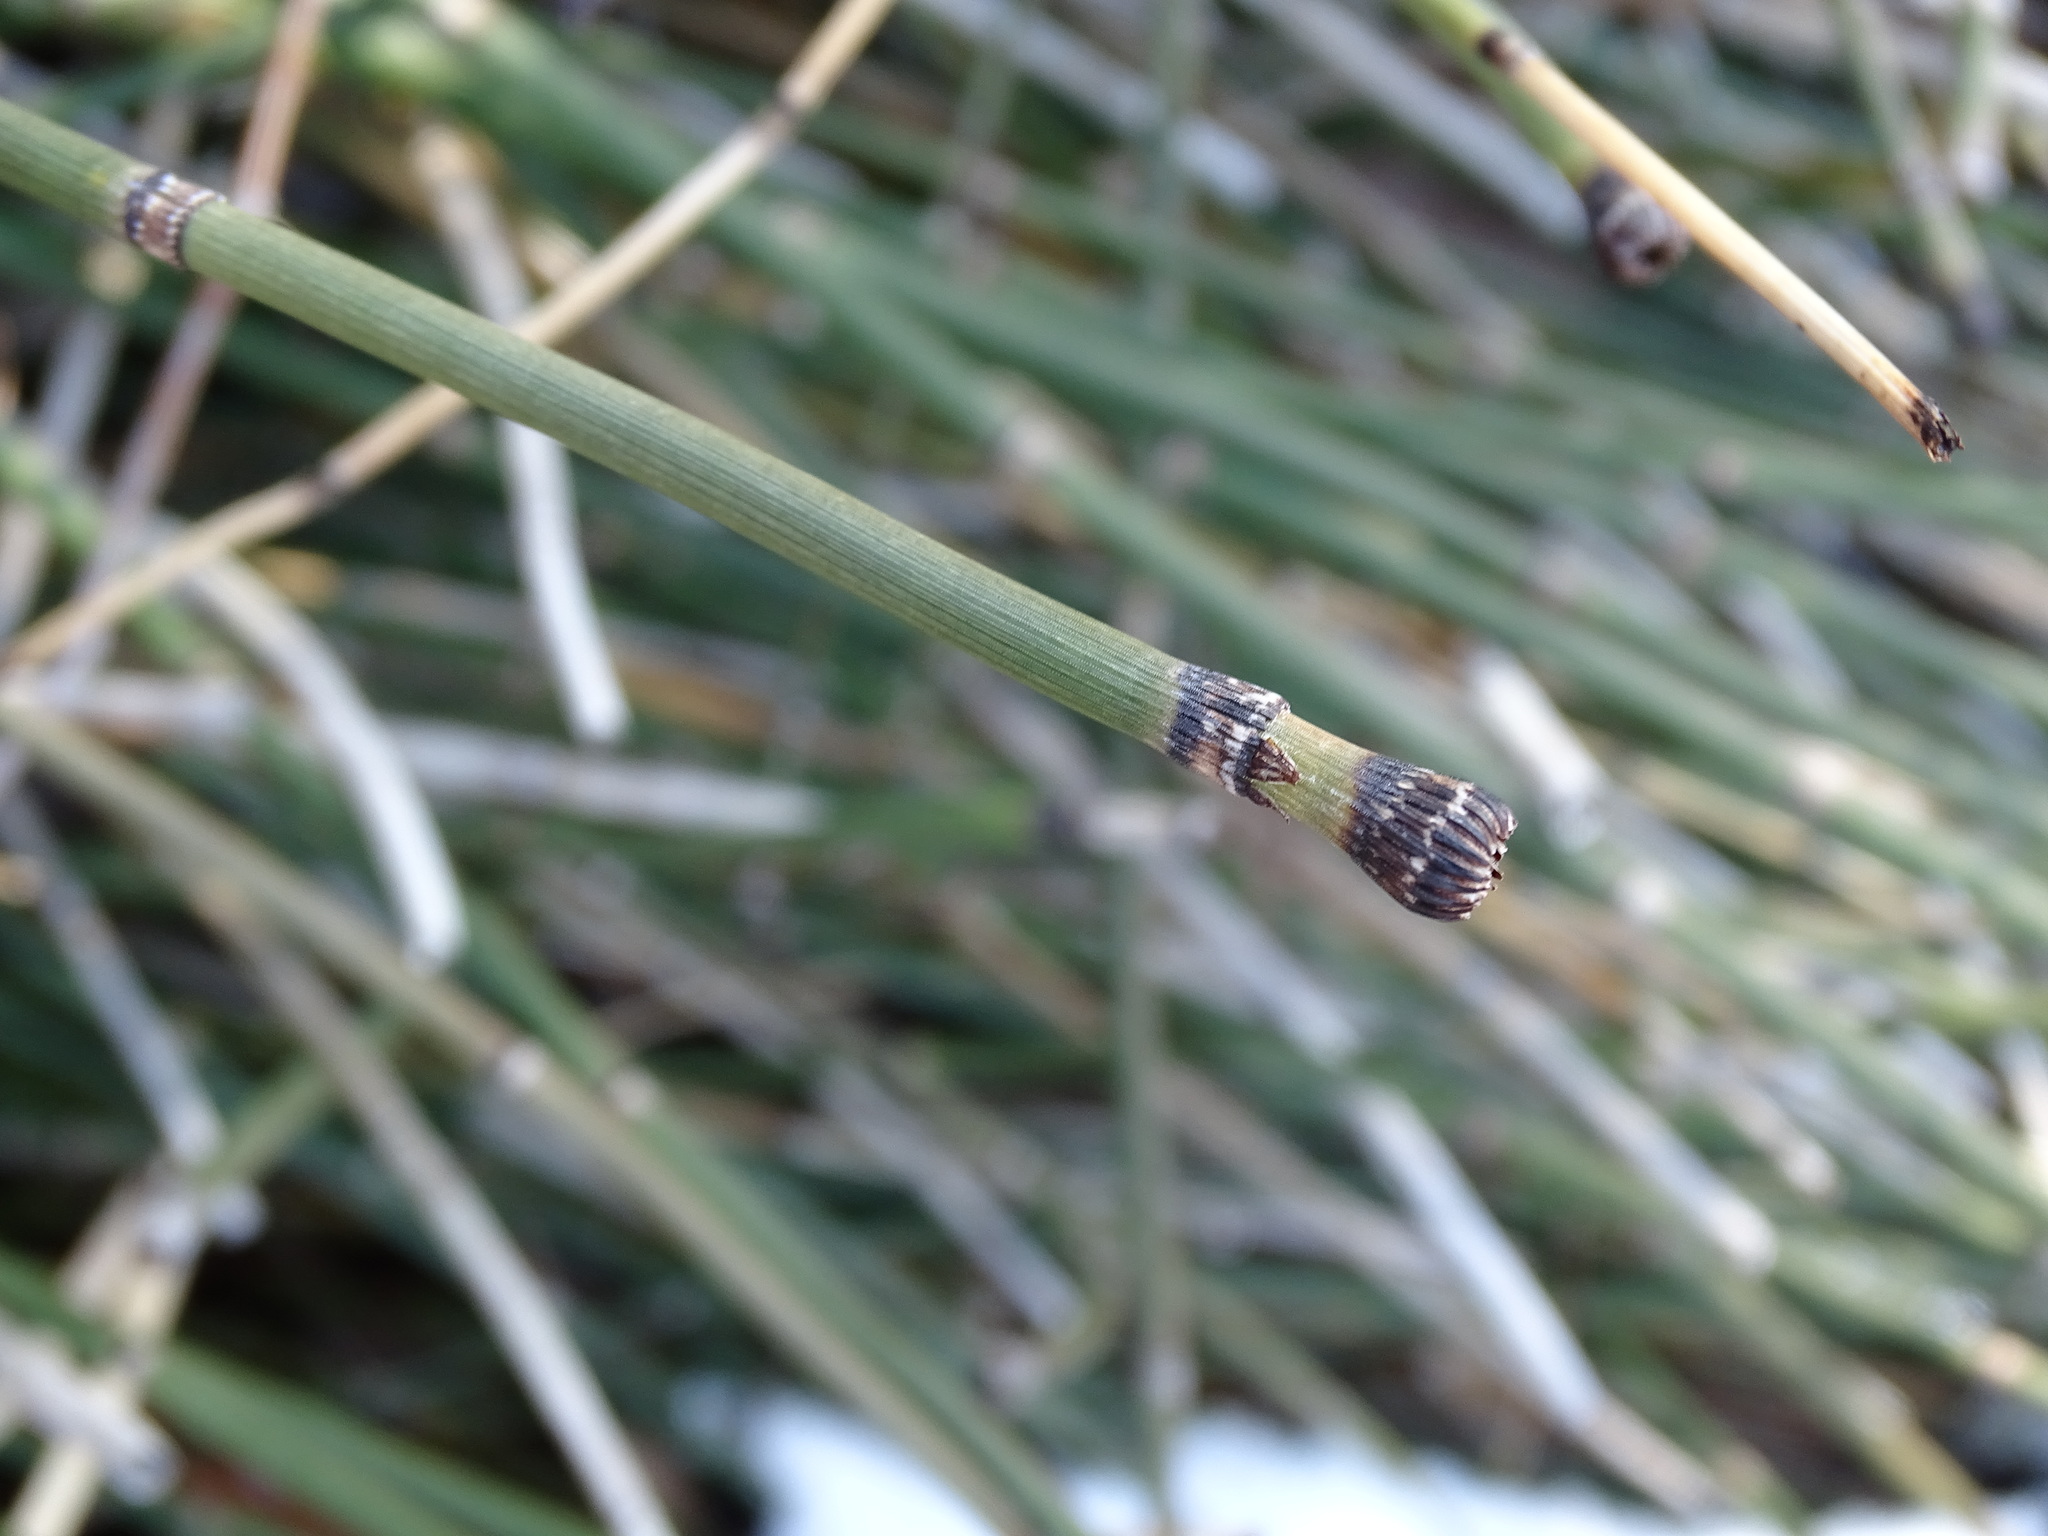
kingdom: Plantae
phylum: Tracheophyta
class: Polypodiopsida
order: Equisetales
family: Equisetaceae
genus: Equisetum
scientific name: Equisetum praealtum
